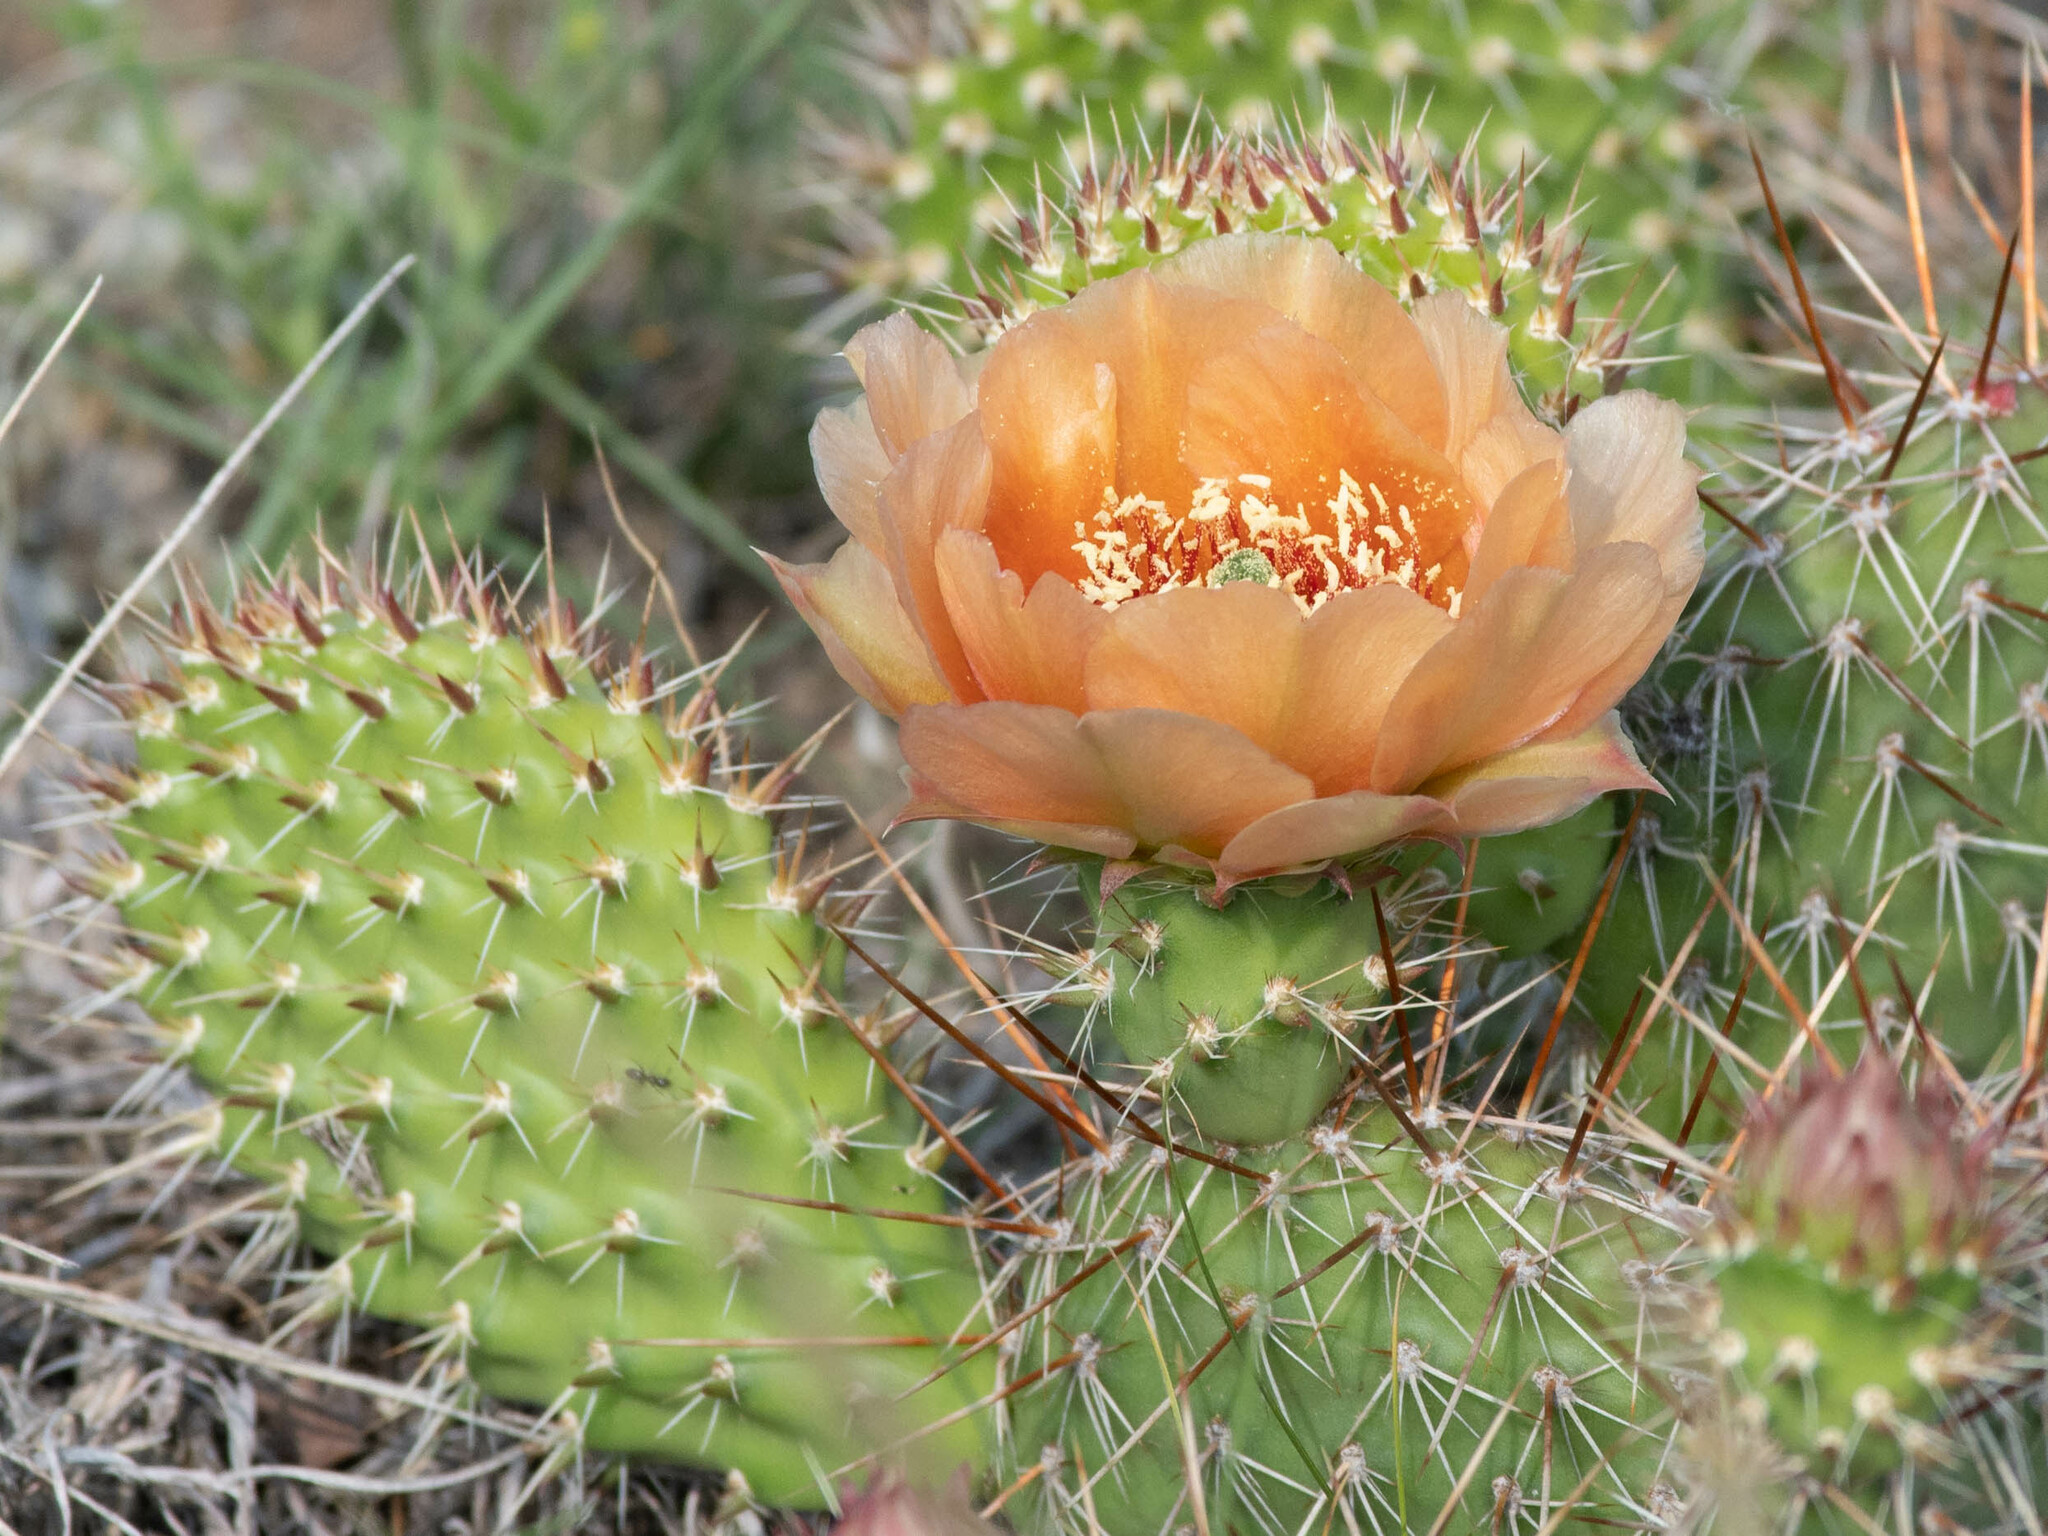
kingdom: Plantae
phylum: Tracheophyta
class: Magnoliopsida
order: Caryophyllales
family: Cactaceae
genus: Opuntia
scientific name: Opuntia polyacantha
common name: Plains prickly-pear
